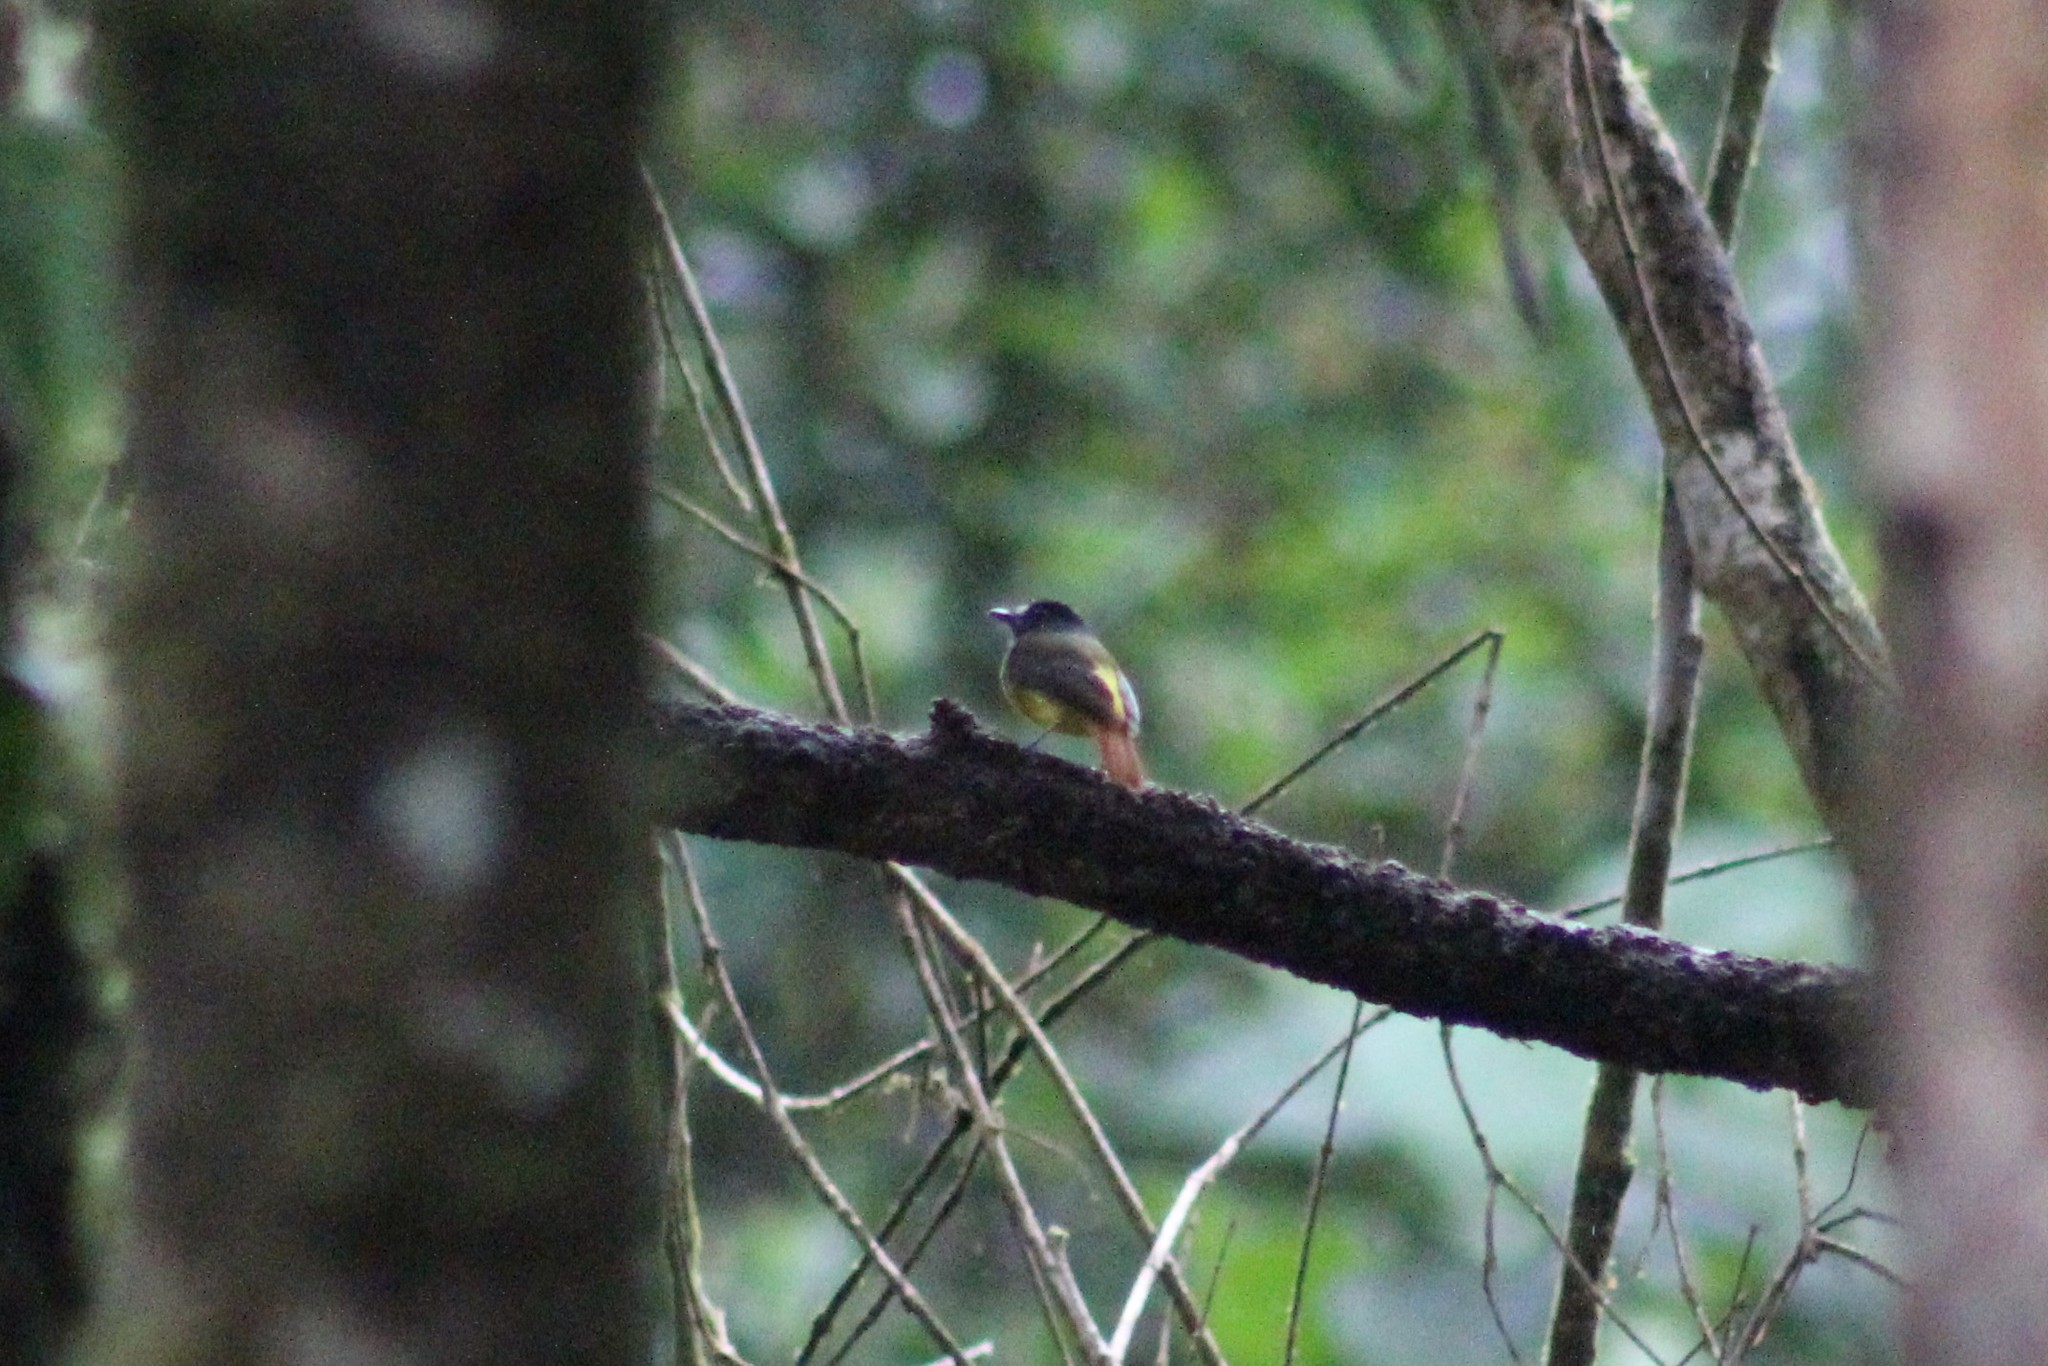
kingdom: Animalia
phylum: Chordata
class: Aves
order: Passeriformes
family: Tyrannidae
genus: Myiotriccus
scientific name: Myiotriccus ornatus
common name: Ornate flycatcher
